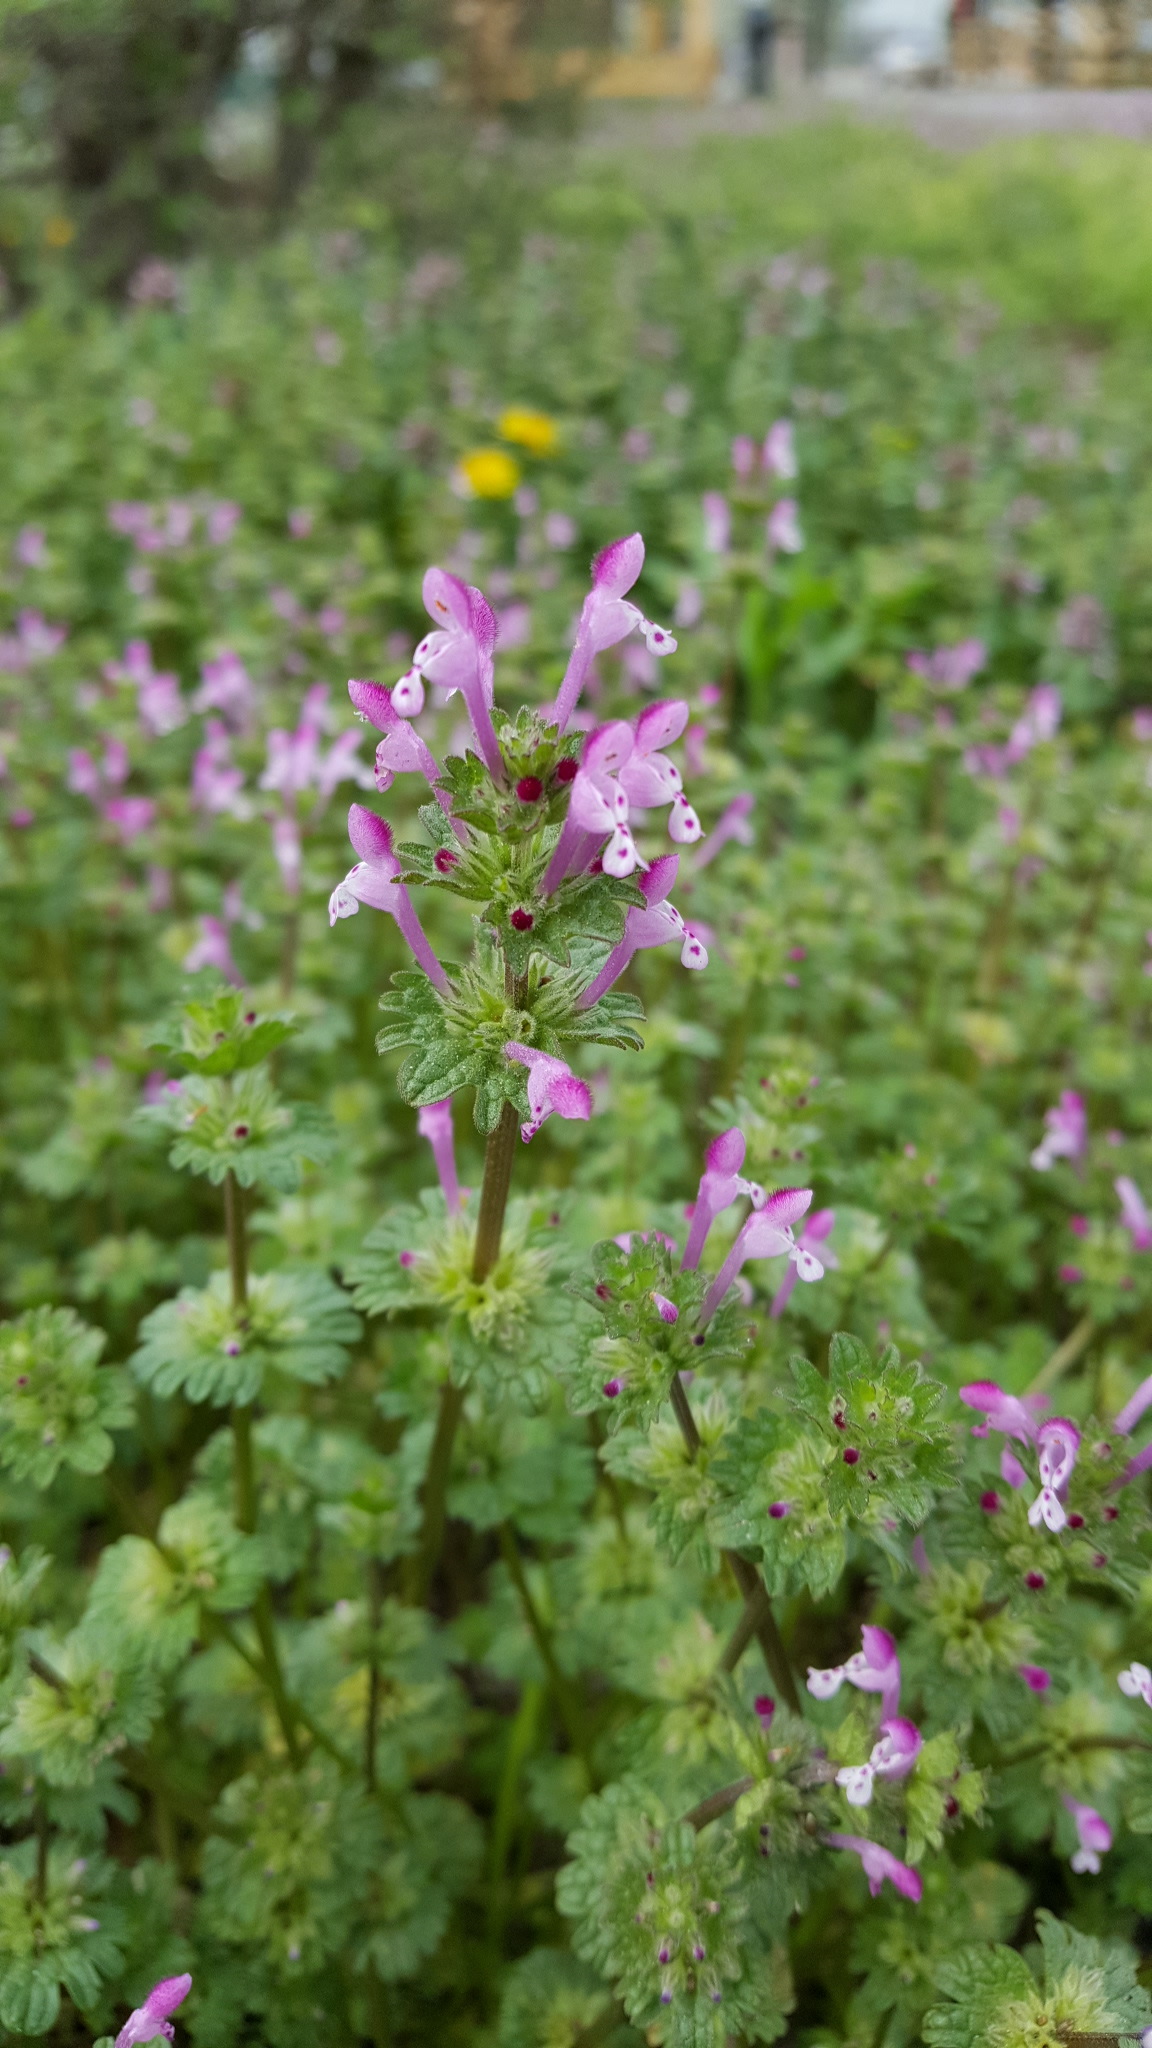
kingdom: Plantae
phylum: Tracheophyta
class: Magnoliopsida
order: Lamiales
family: Lamiaceae
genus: Lamium
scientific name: Lamium amplexicaule
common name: Henbit dead-nettle
